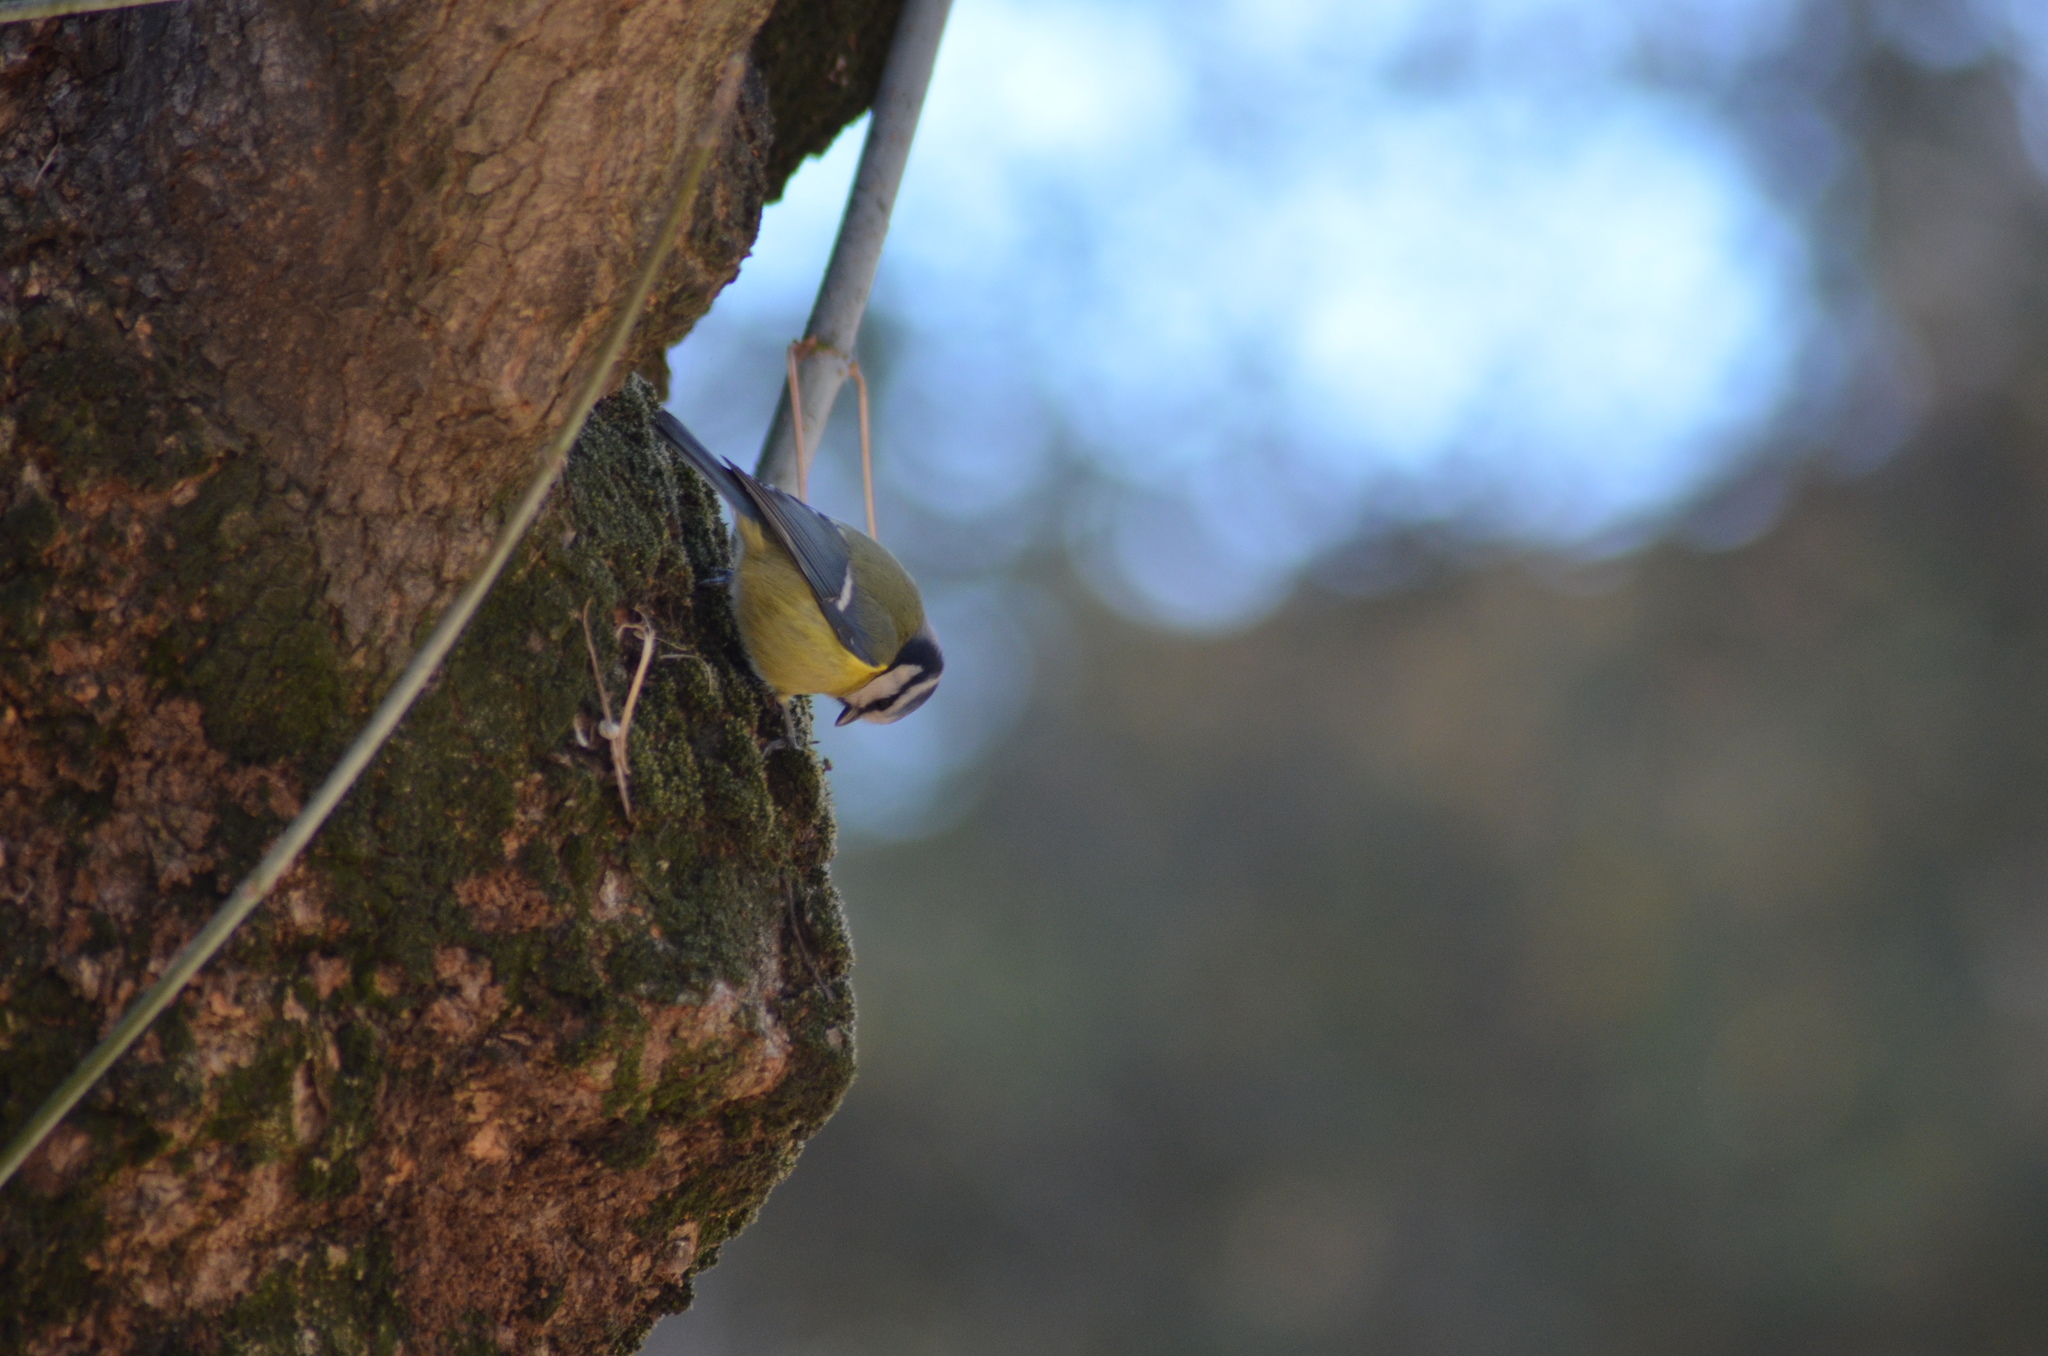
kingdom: Animalia
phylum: Chordata
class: Aves
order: Passeriformes
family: Paridae
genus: Cyanistes
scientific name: Cyanistes caeruleus
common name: Eurasian blue tit
